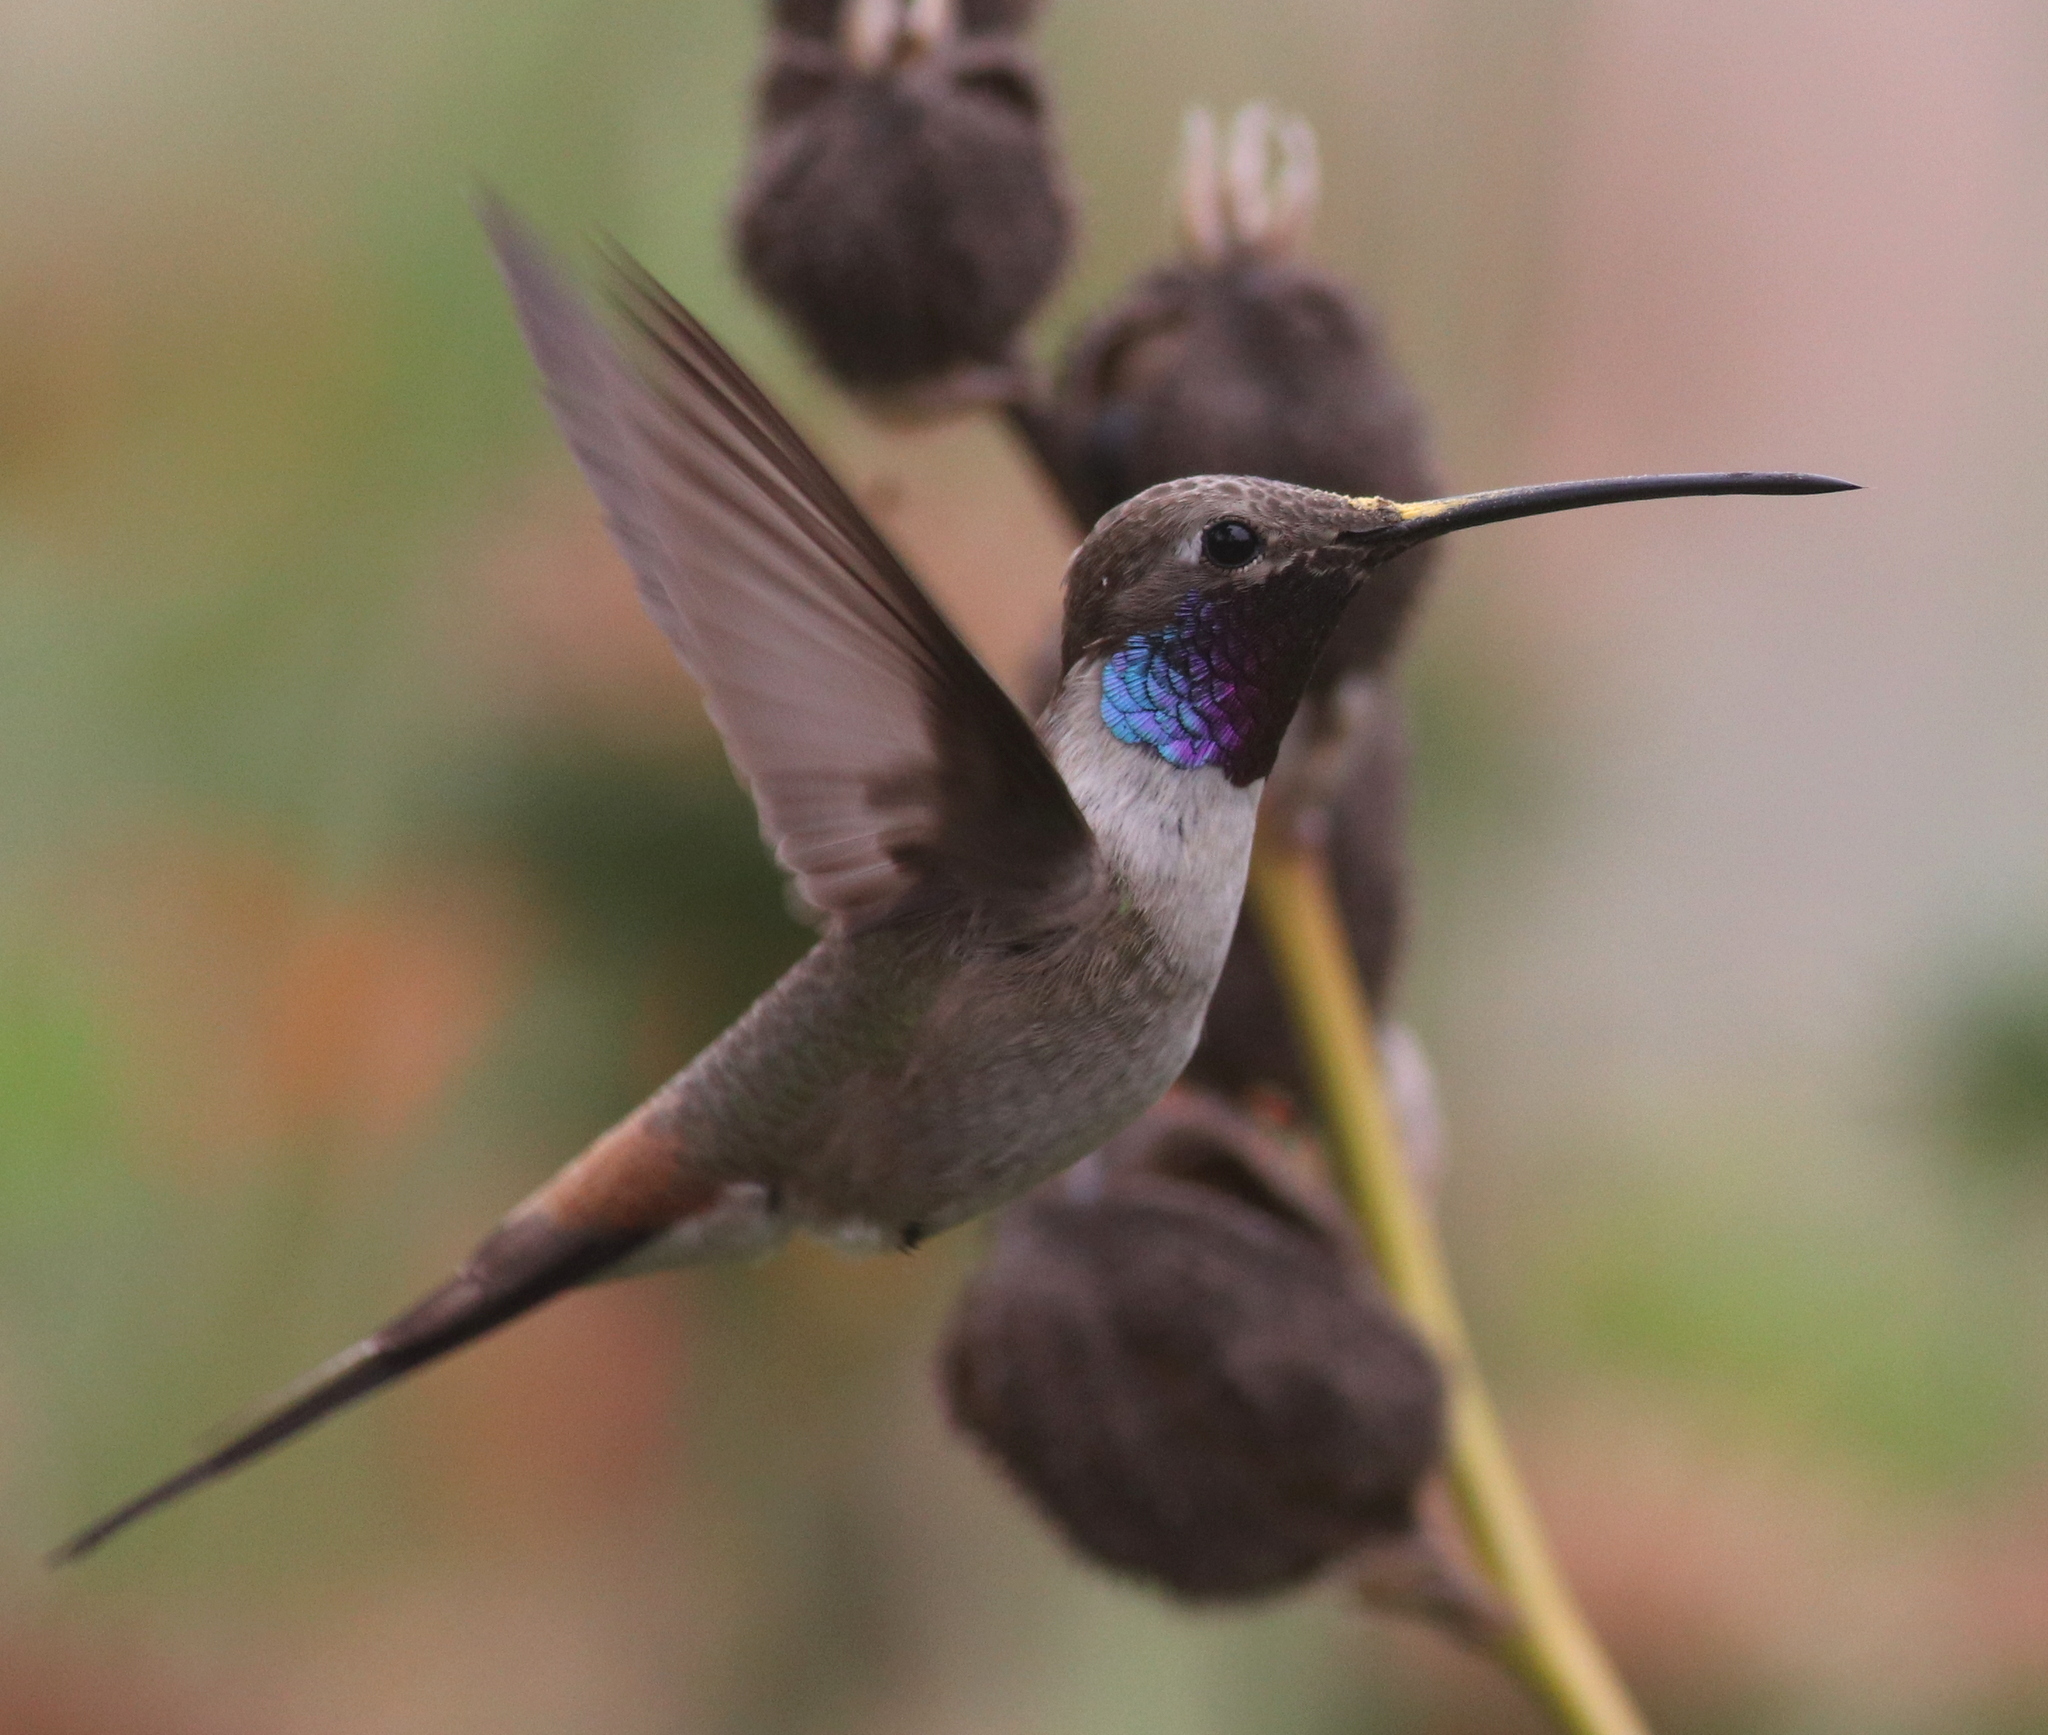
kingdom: Animalia
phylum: Chordata
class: Aves
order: Apodiformes
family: Trochilidae
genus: Rhodopis
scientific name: Rhodopis vesper
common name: Oasis hummingbird
